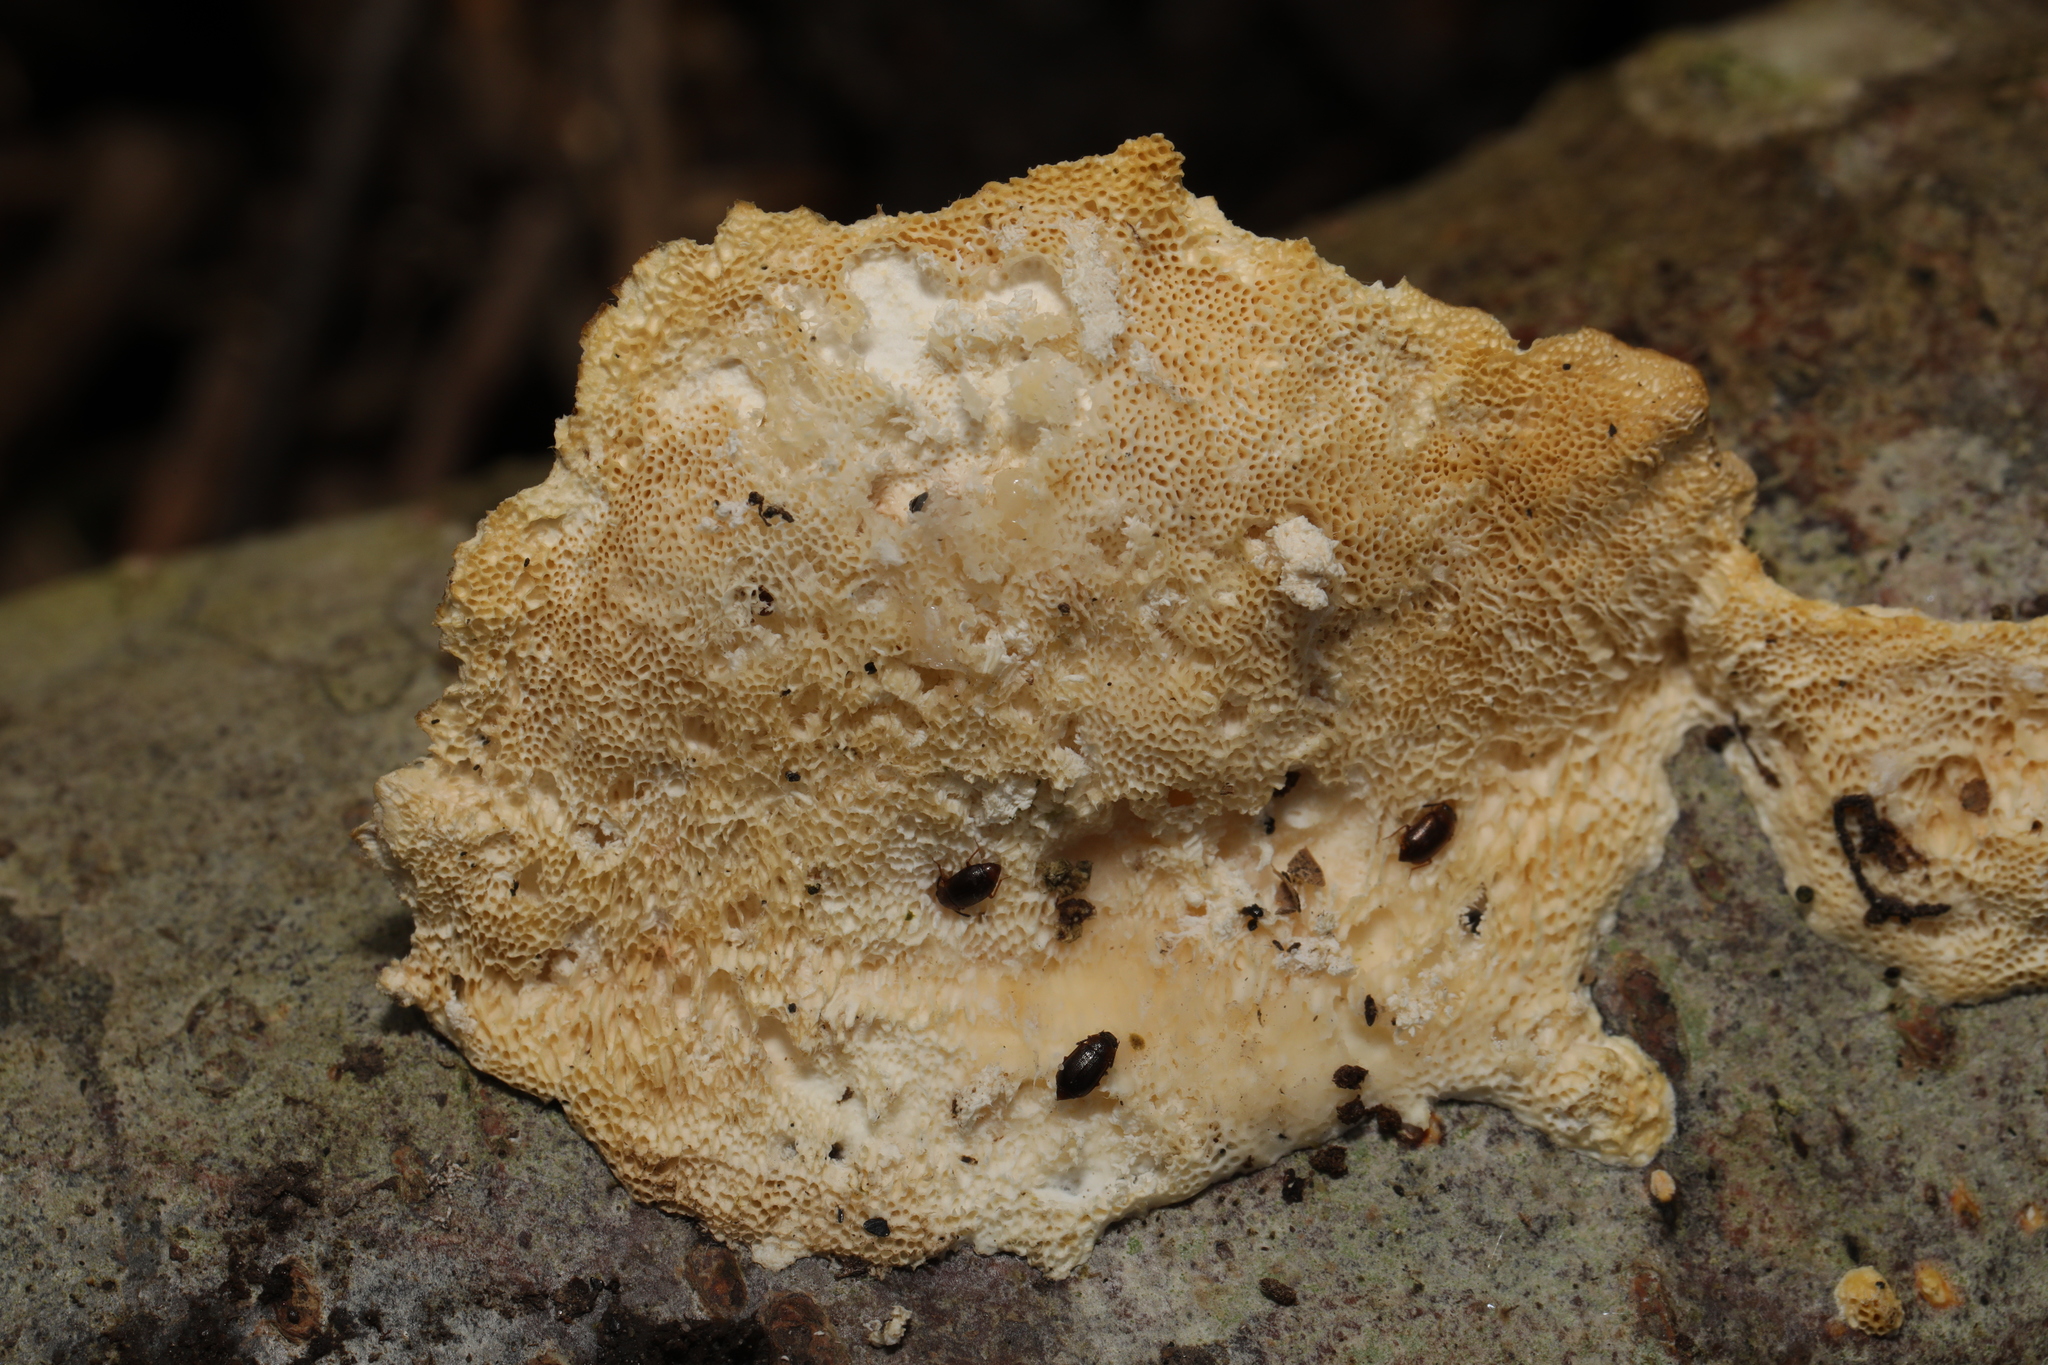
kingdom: Fungi
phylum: Basidiomycota
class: Agaricomycetes
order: Polyporales
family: Polyporaceae
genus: Trametes
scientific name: Trametes versicolor
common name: Turkeytail
